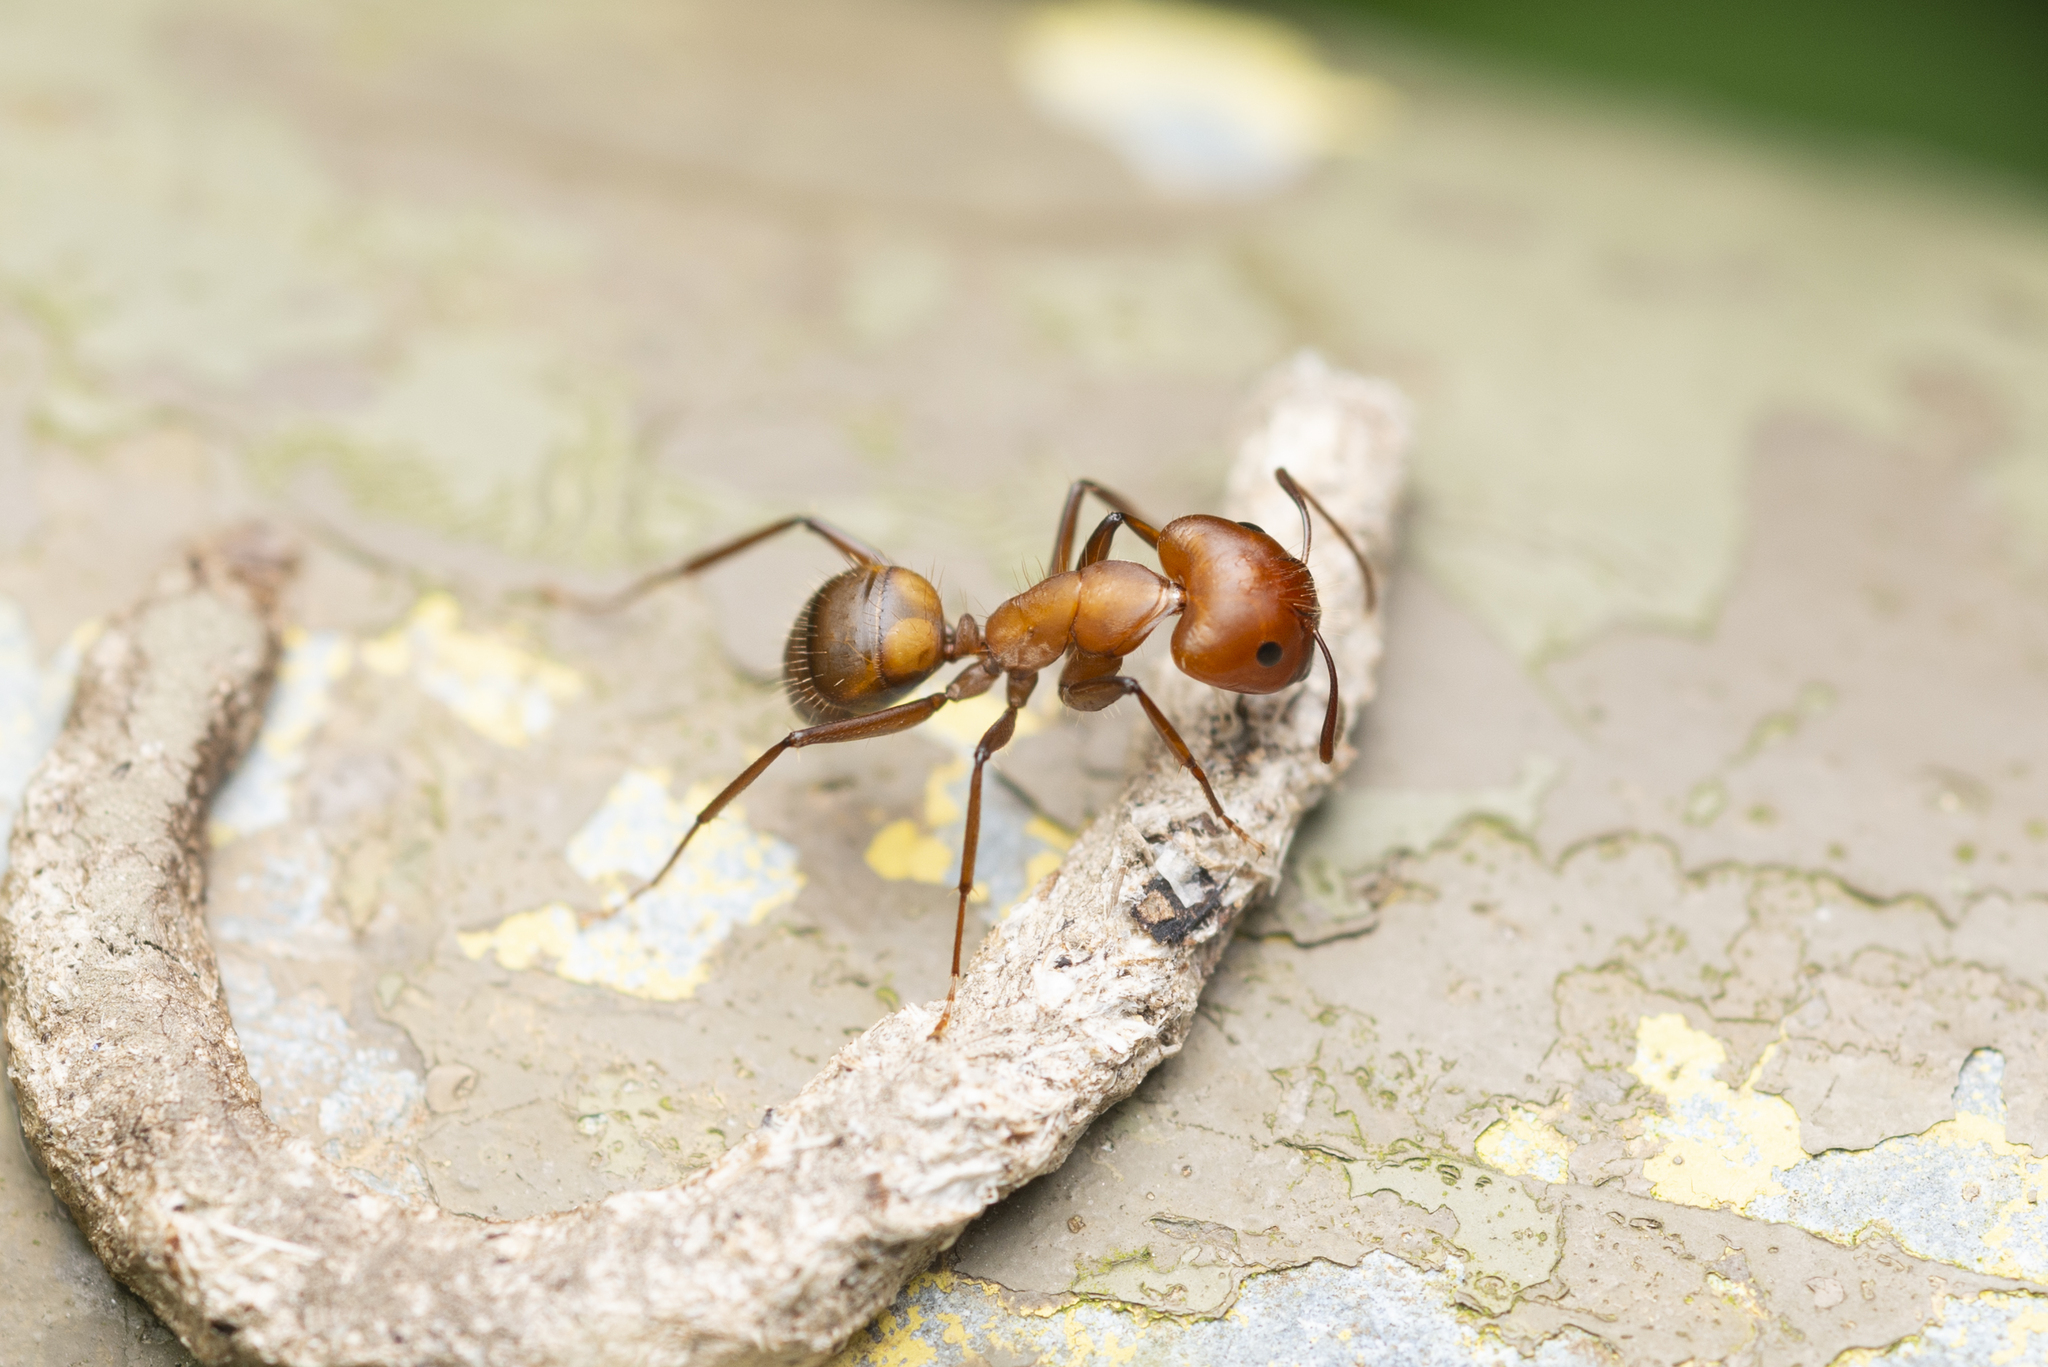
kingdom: Animalia
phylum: Arthropoda
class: Insecta
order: Hymenoptera
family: Formicidae
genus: Camponotus
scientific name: Camponotus nicobarensis
